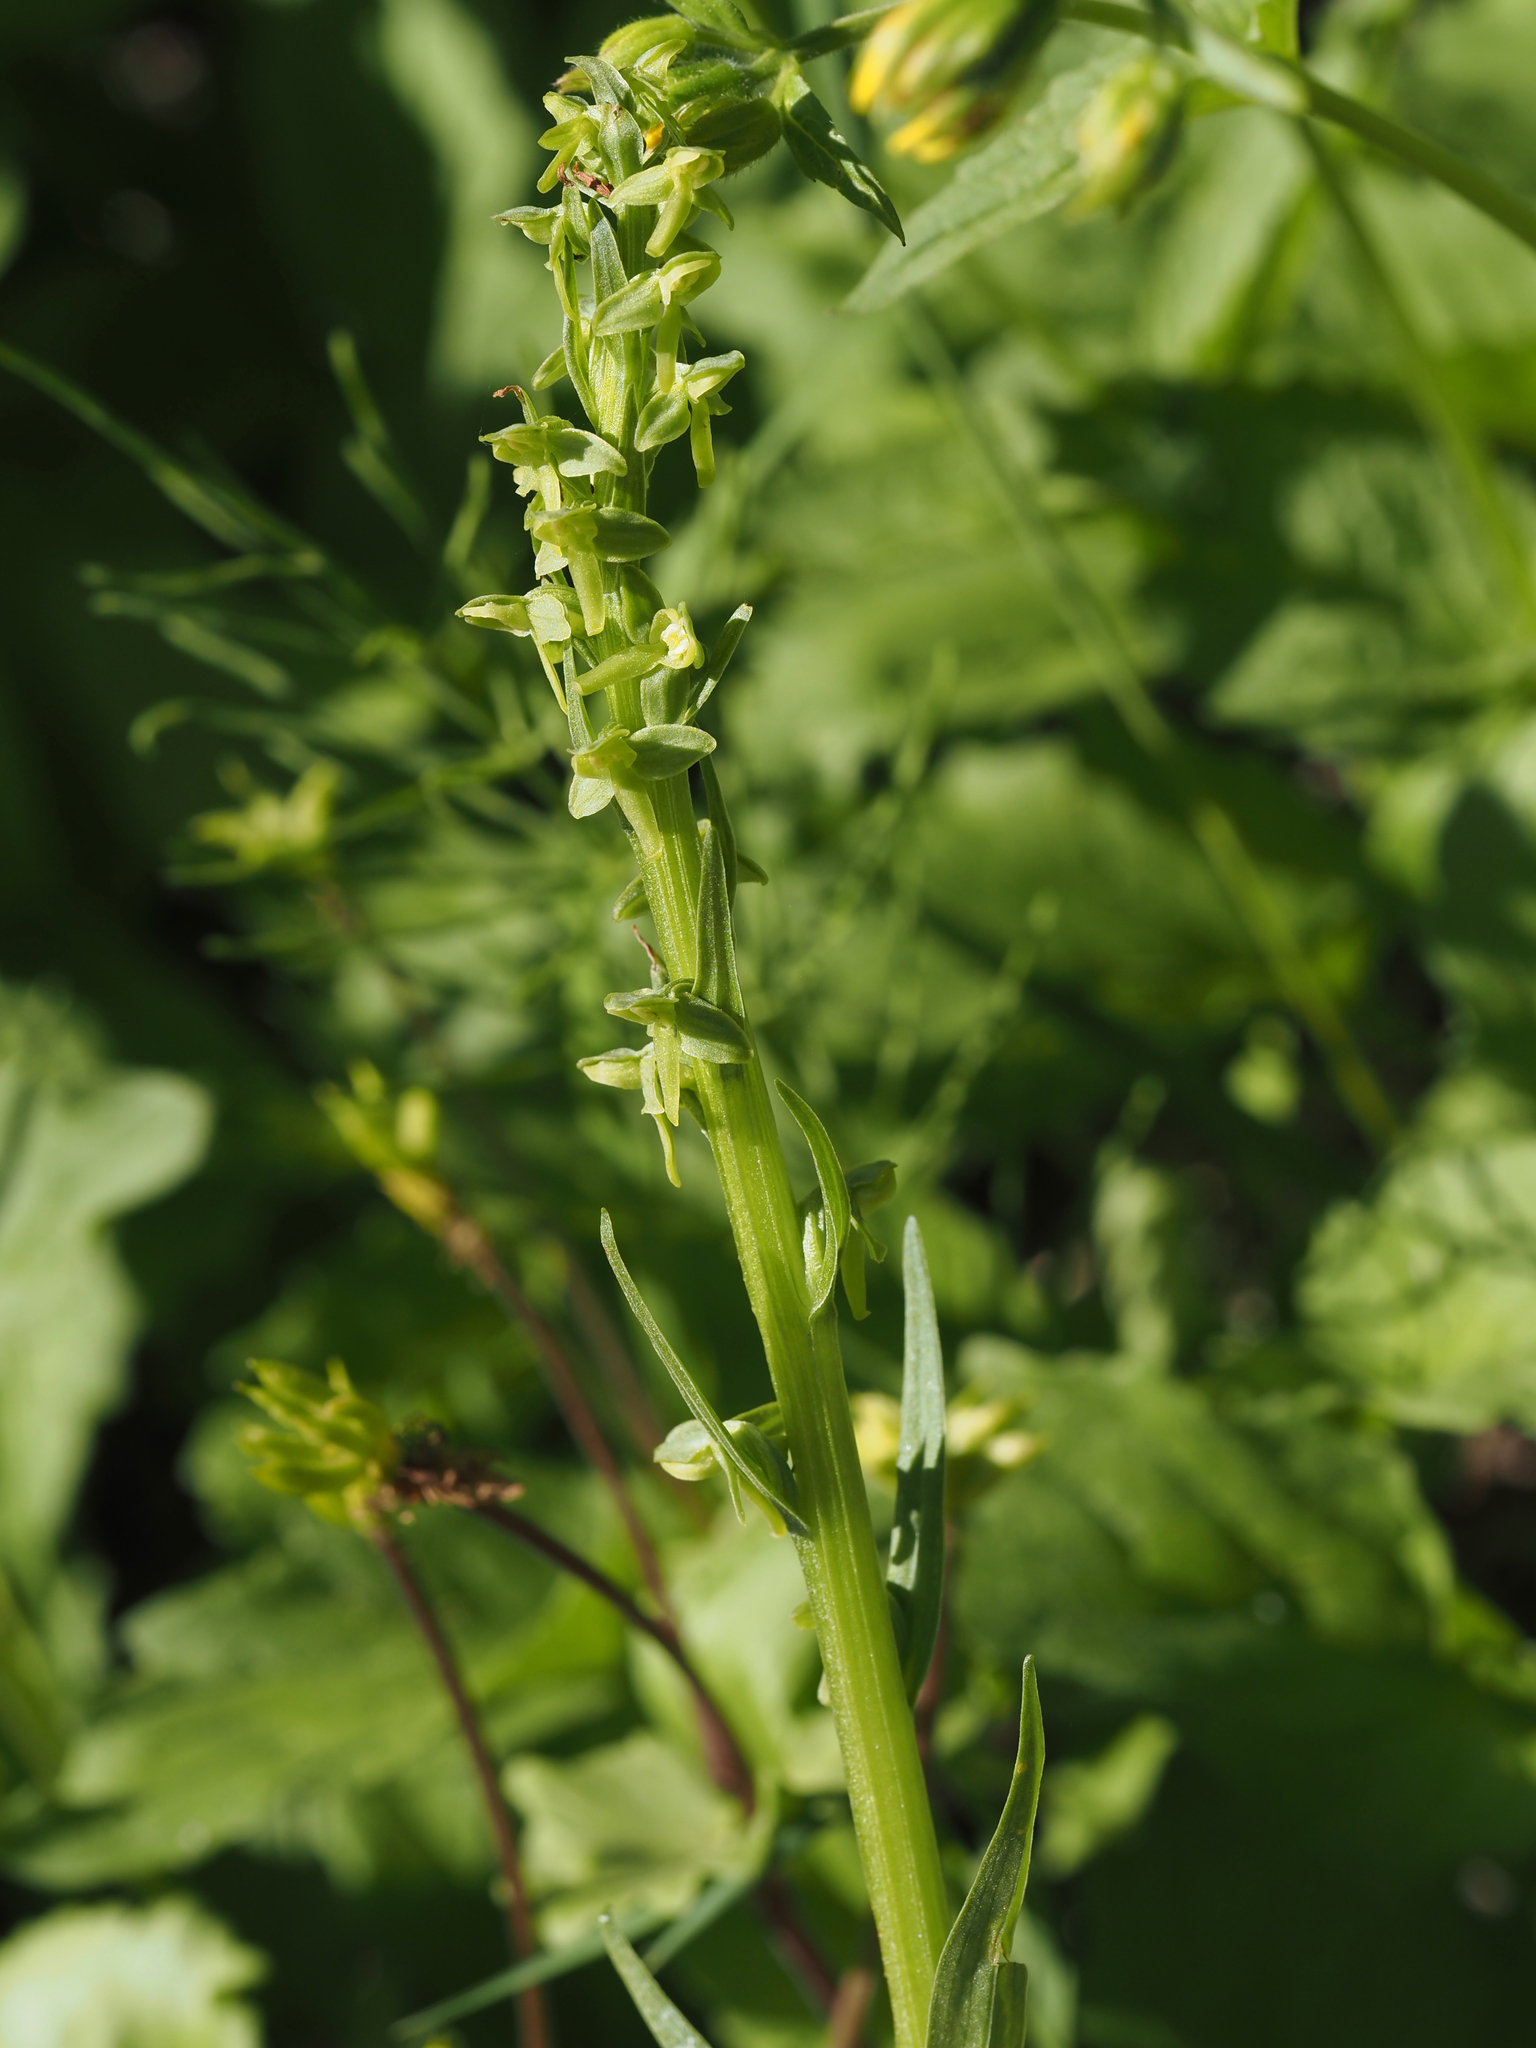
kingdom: Plantae
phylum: Tracheophyta
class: Liliopsida
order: Asparagales
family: Orchidaceae
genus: Platanthera
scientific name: Platanthera stricta
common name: Slender bog orchid
